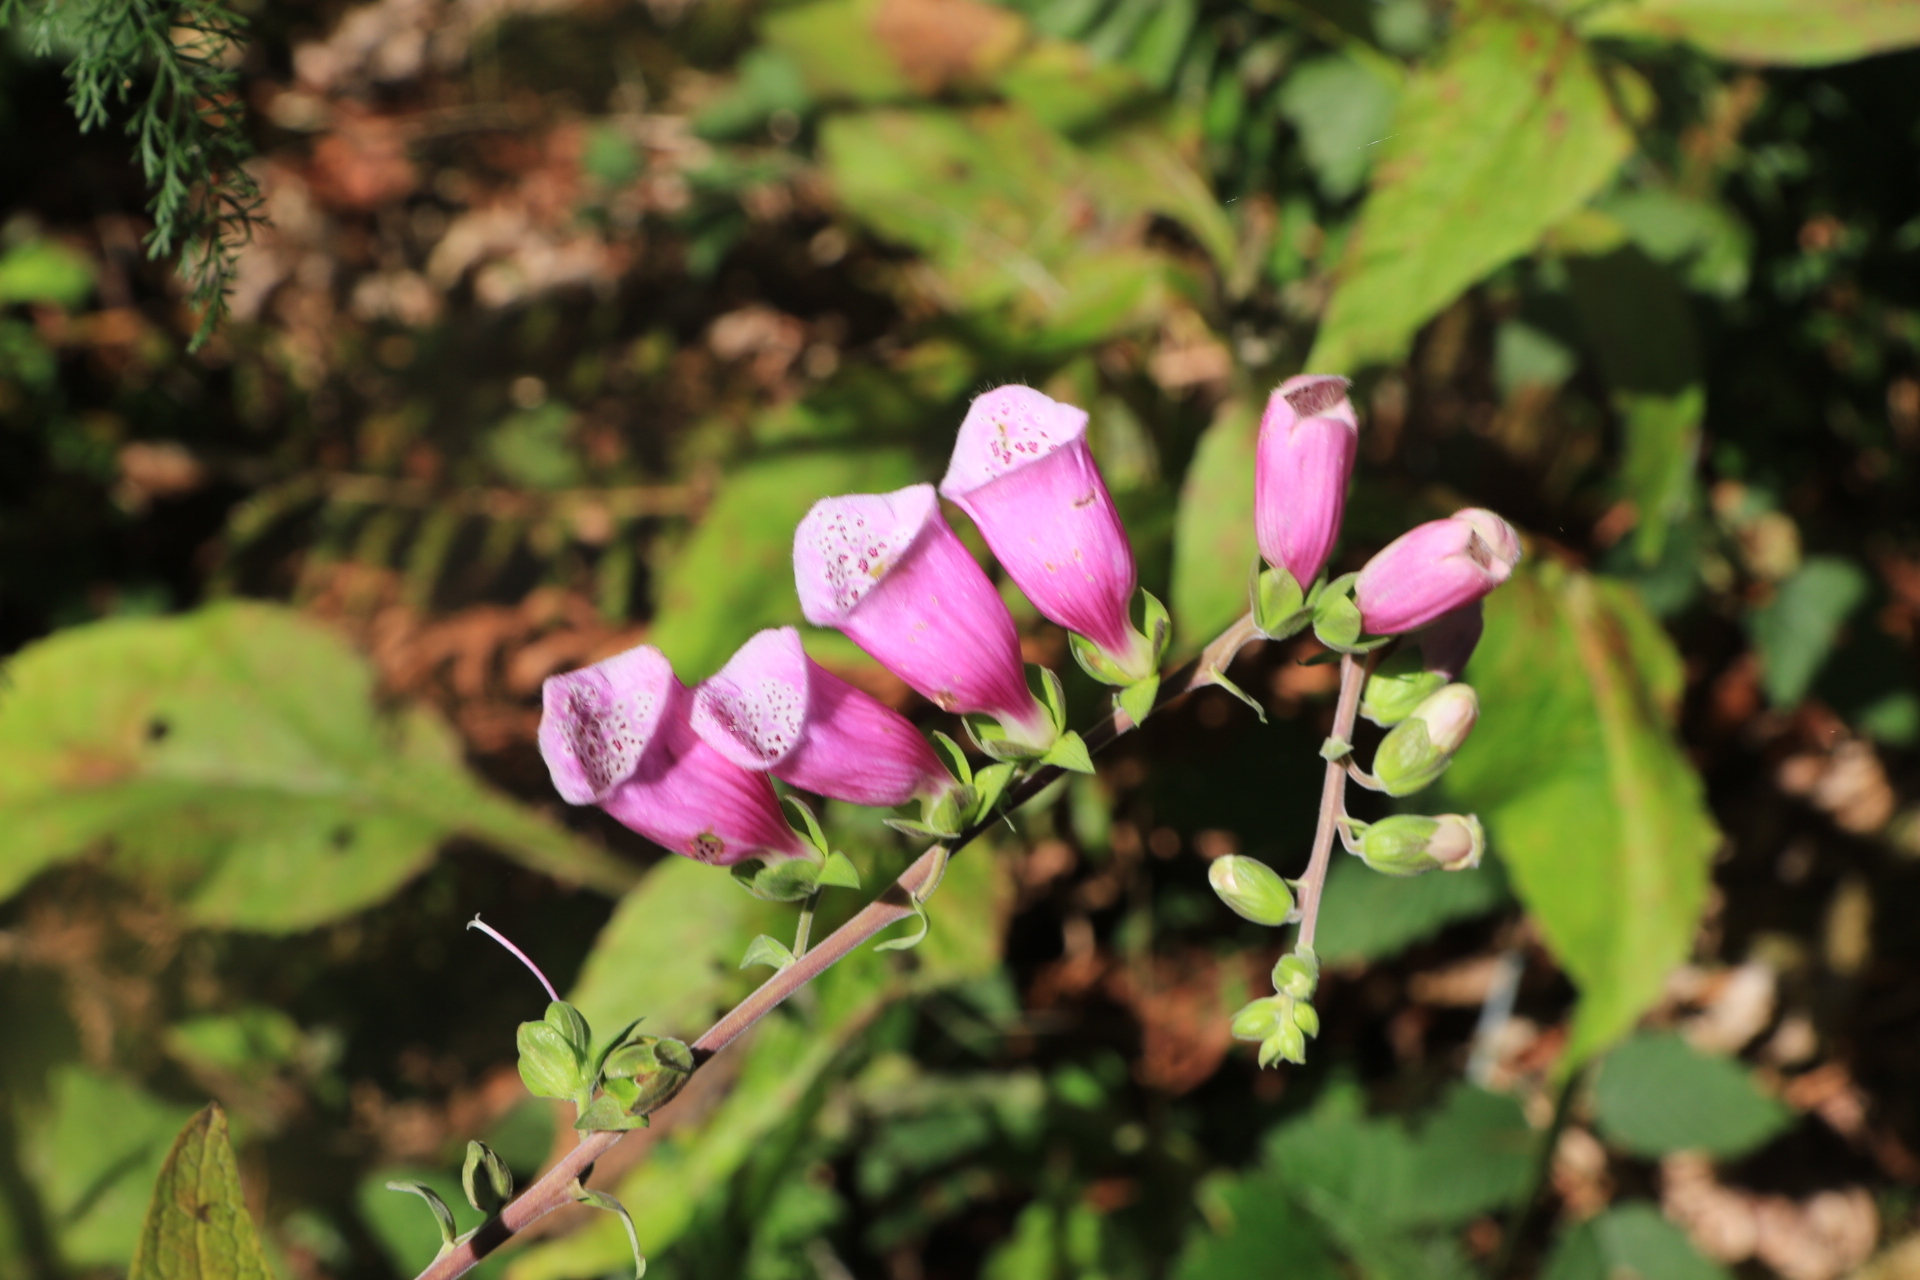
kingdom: Plantae
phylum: Tracheophyta
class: Magnoliopsida
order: Lamiales
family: Plantaginaceae
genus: Digitalis
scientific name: Digitalis purpurea
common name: Foxglove
